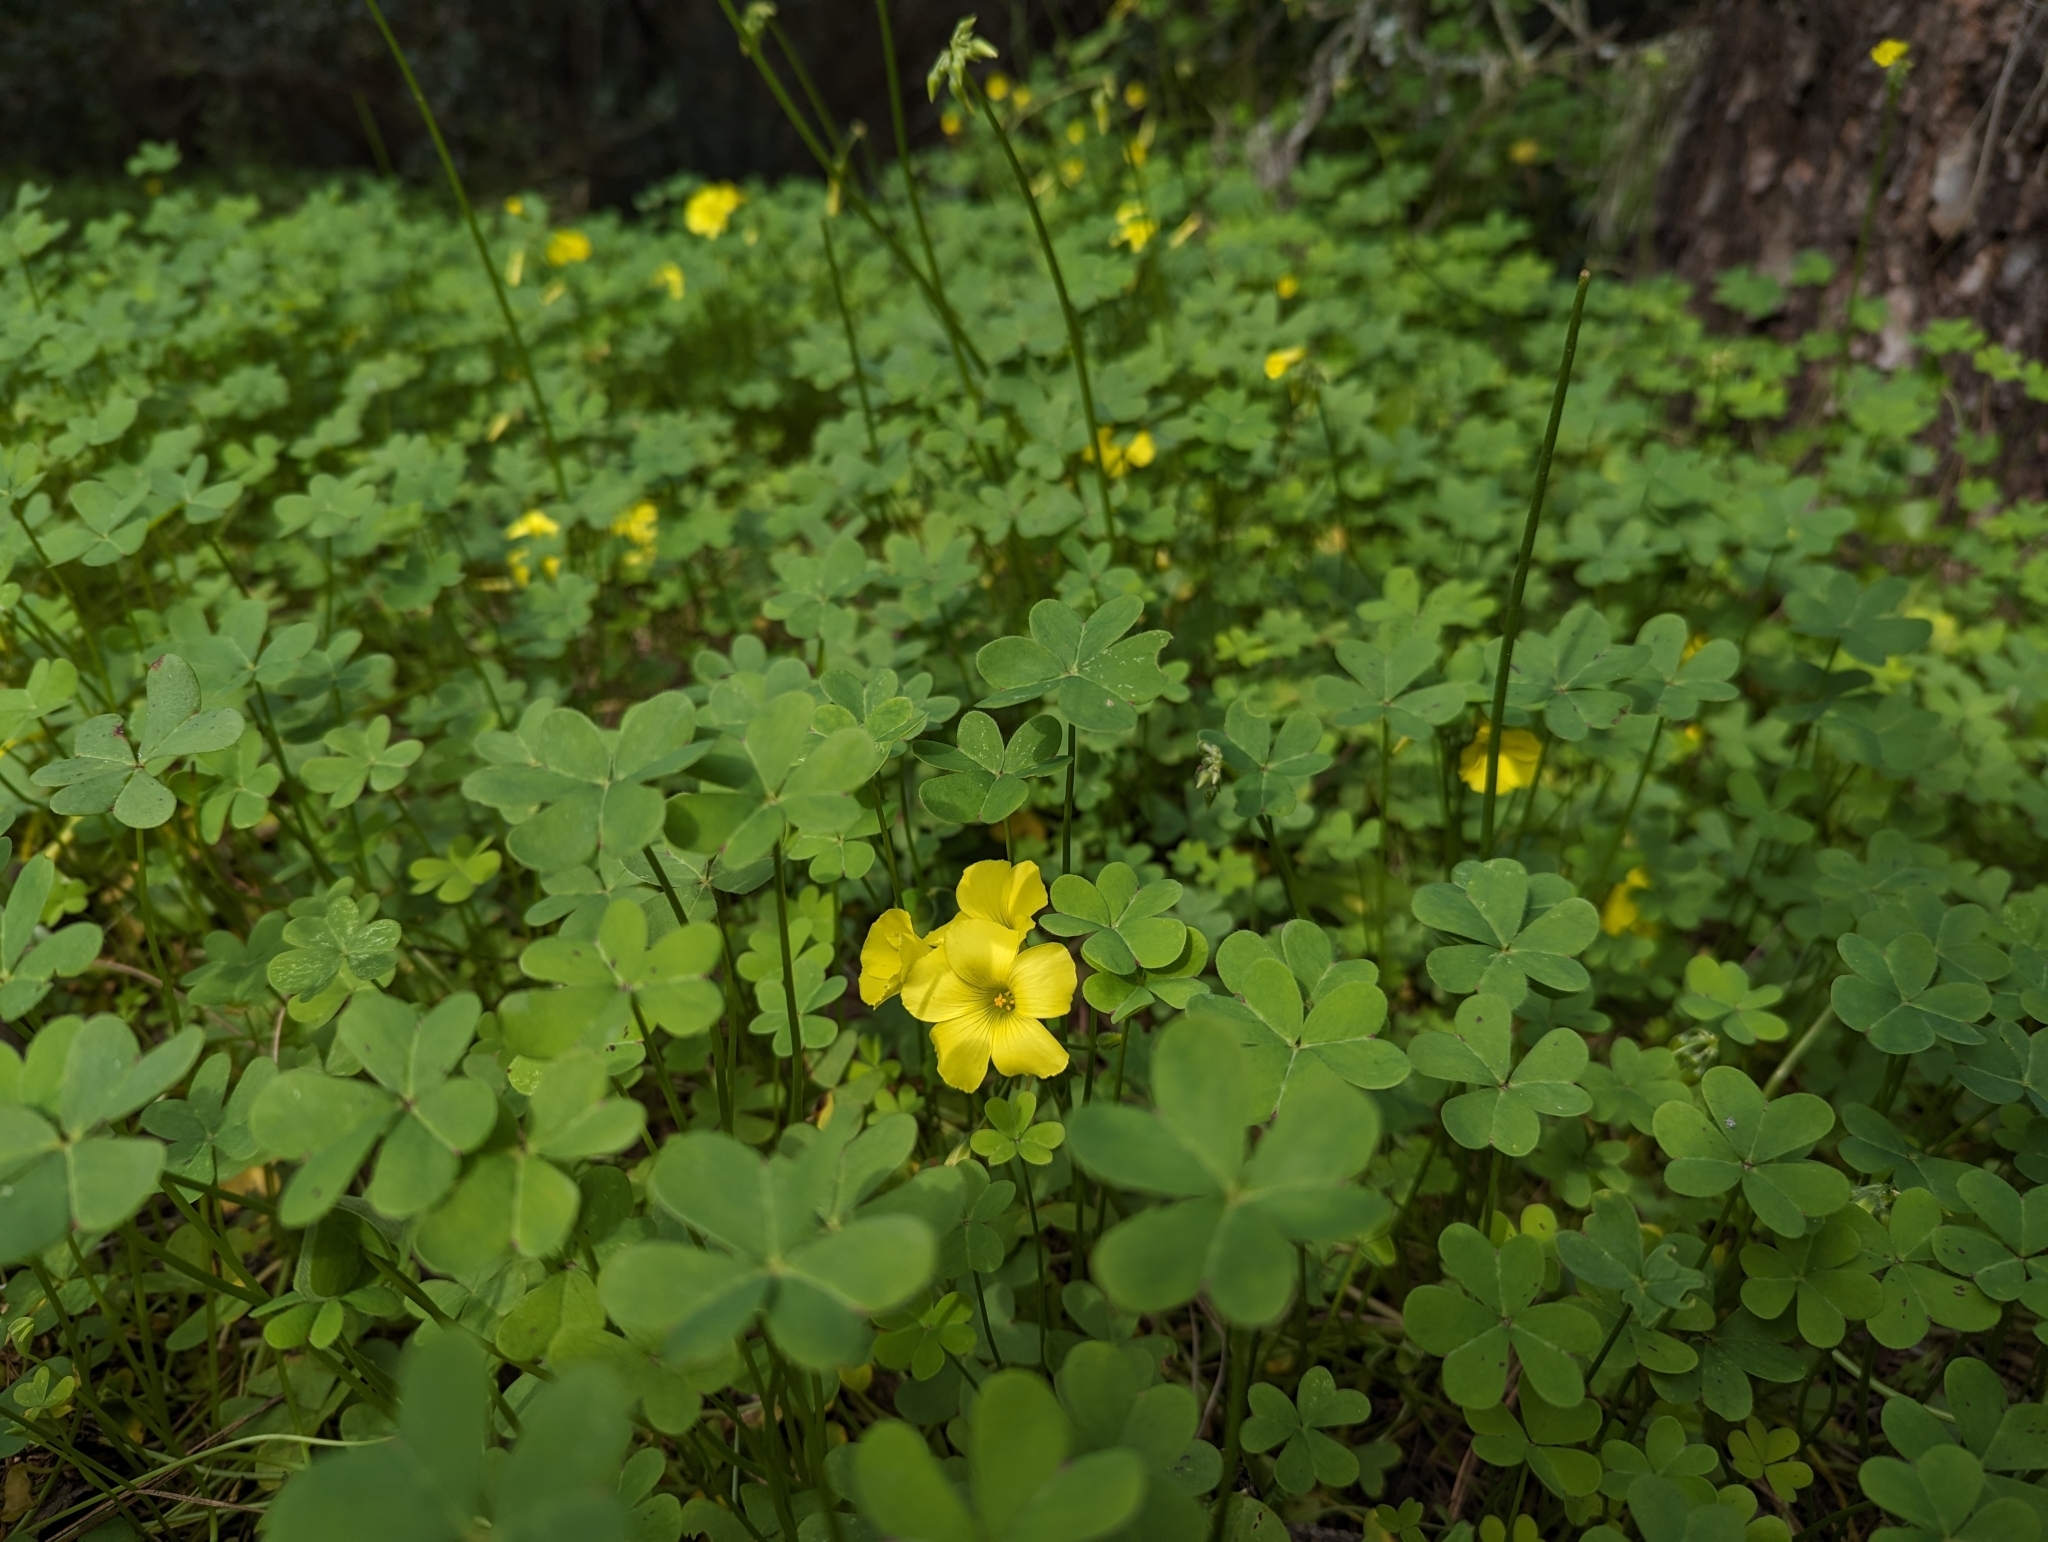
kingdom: Plantae
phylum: Tracheophyta
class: Magnoliopsida
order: Oxalidales
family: Oxalidaceae
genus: Oxalis
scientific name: Oxalis pes-caprae
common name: Bermuda-buttercup
